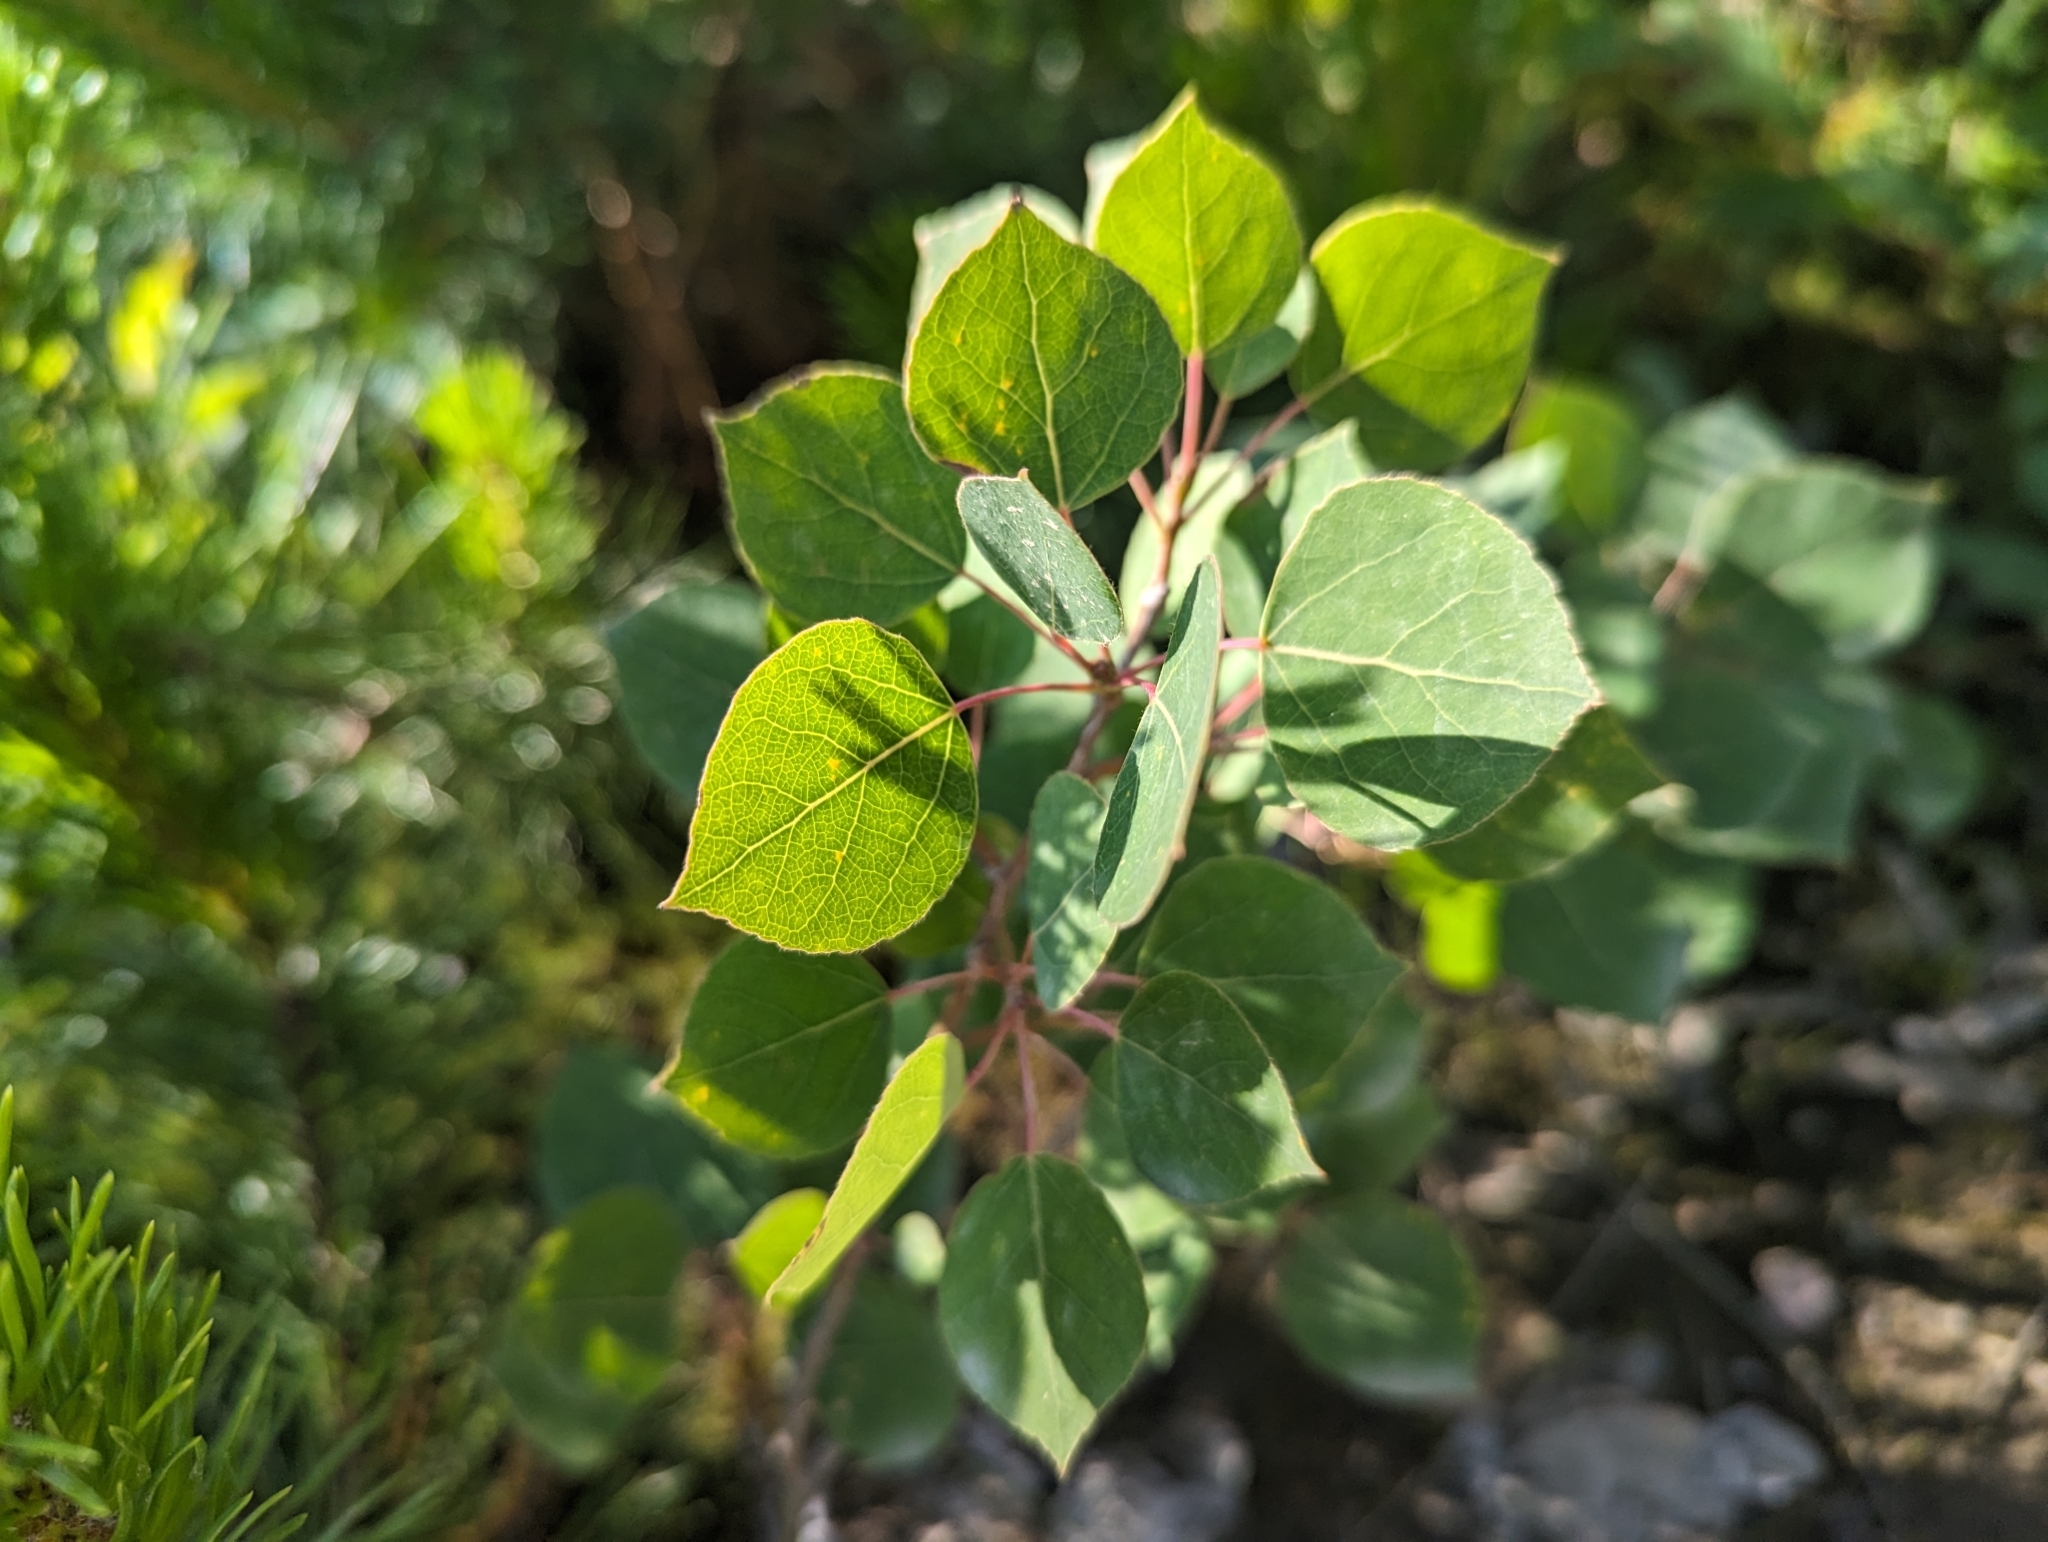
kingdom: Plantae
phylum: Tracheophyta
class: Magnoliopsida
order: Malpighiales
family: Salicaceae
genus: Populus
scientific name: Populus tremuloides
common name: Quaking aspen
